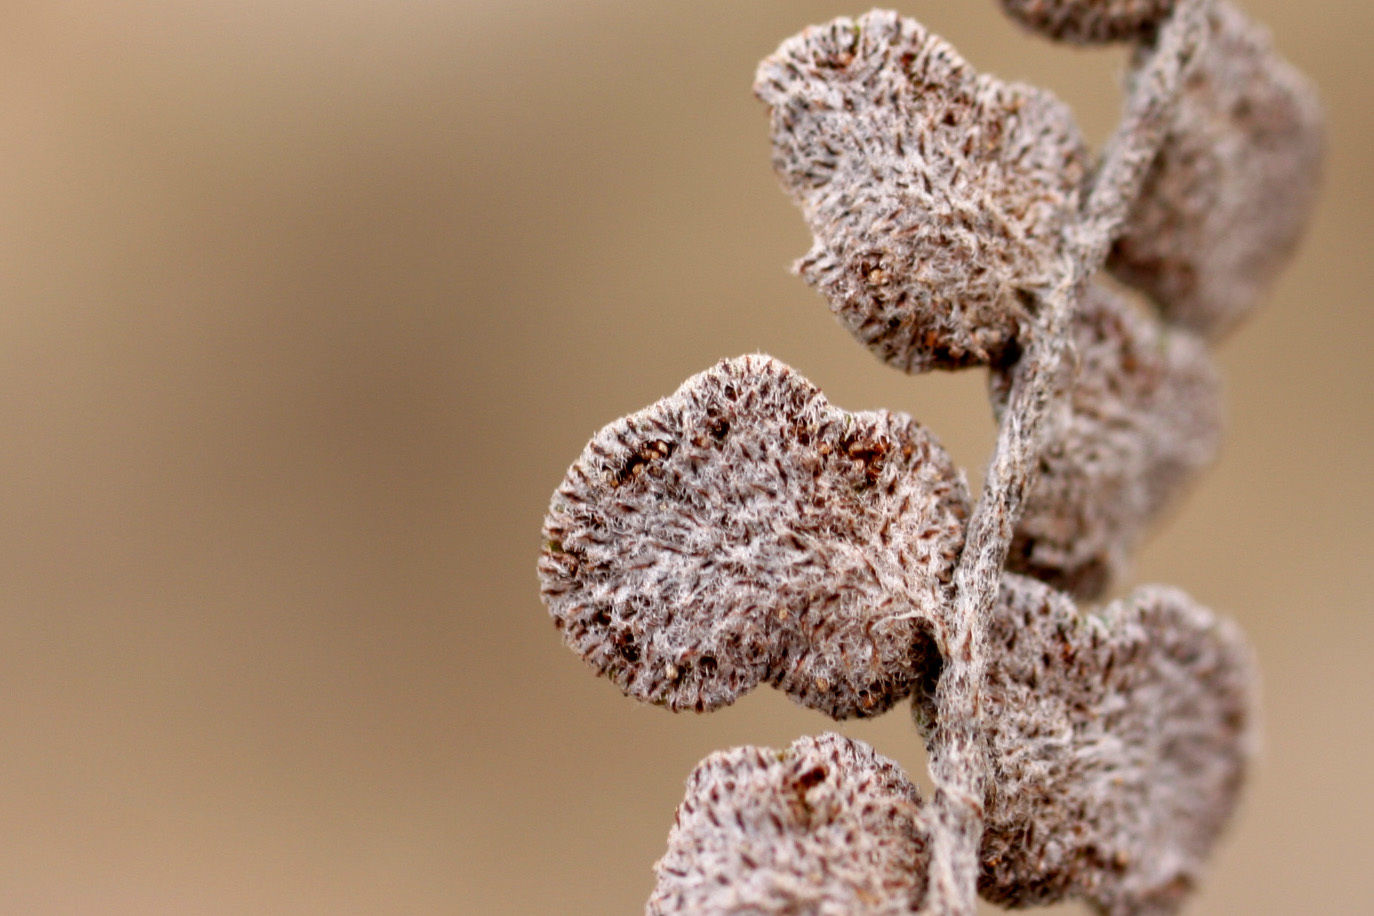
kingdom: Plantae
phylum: Tracheophyta
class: Polypodiopsida
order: Polypodiales
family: Pteridaceae
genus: Astrolepis
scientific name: Astrolepis cochisensis
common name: Scaly cloak fern
